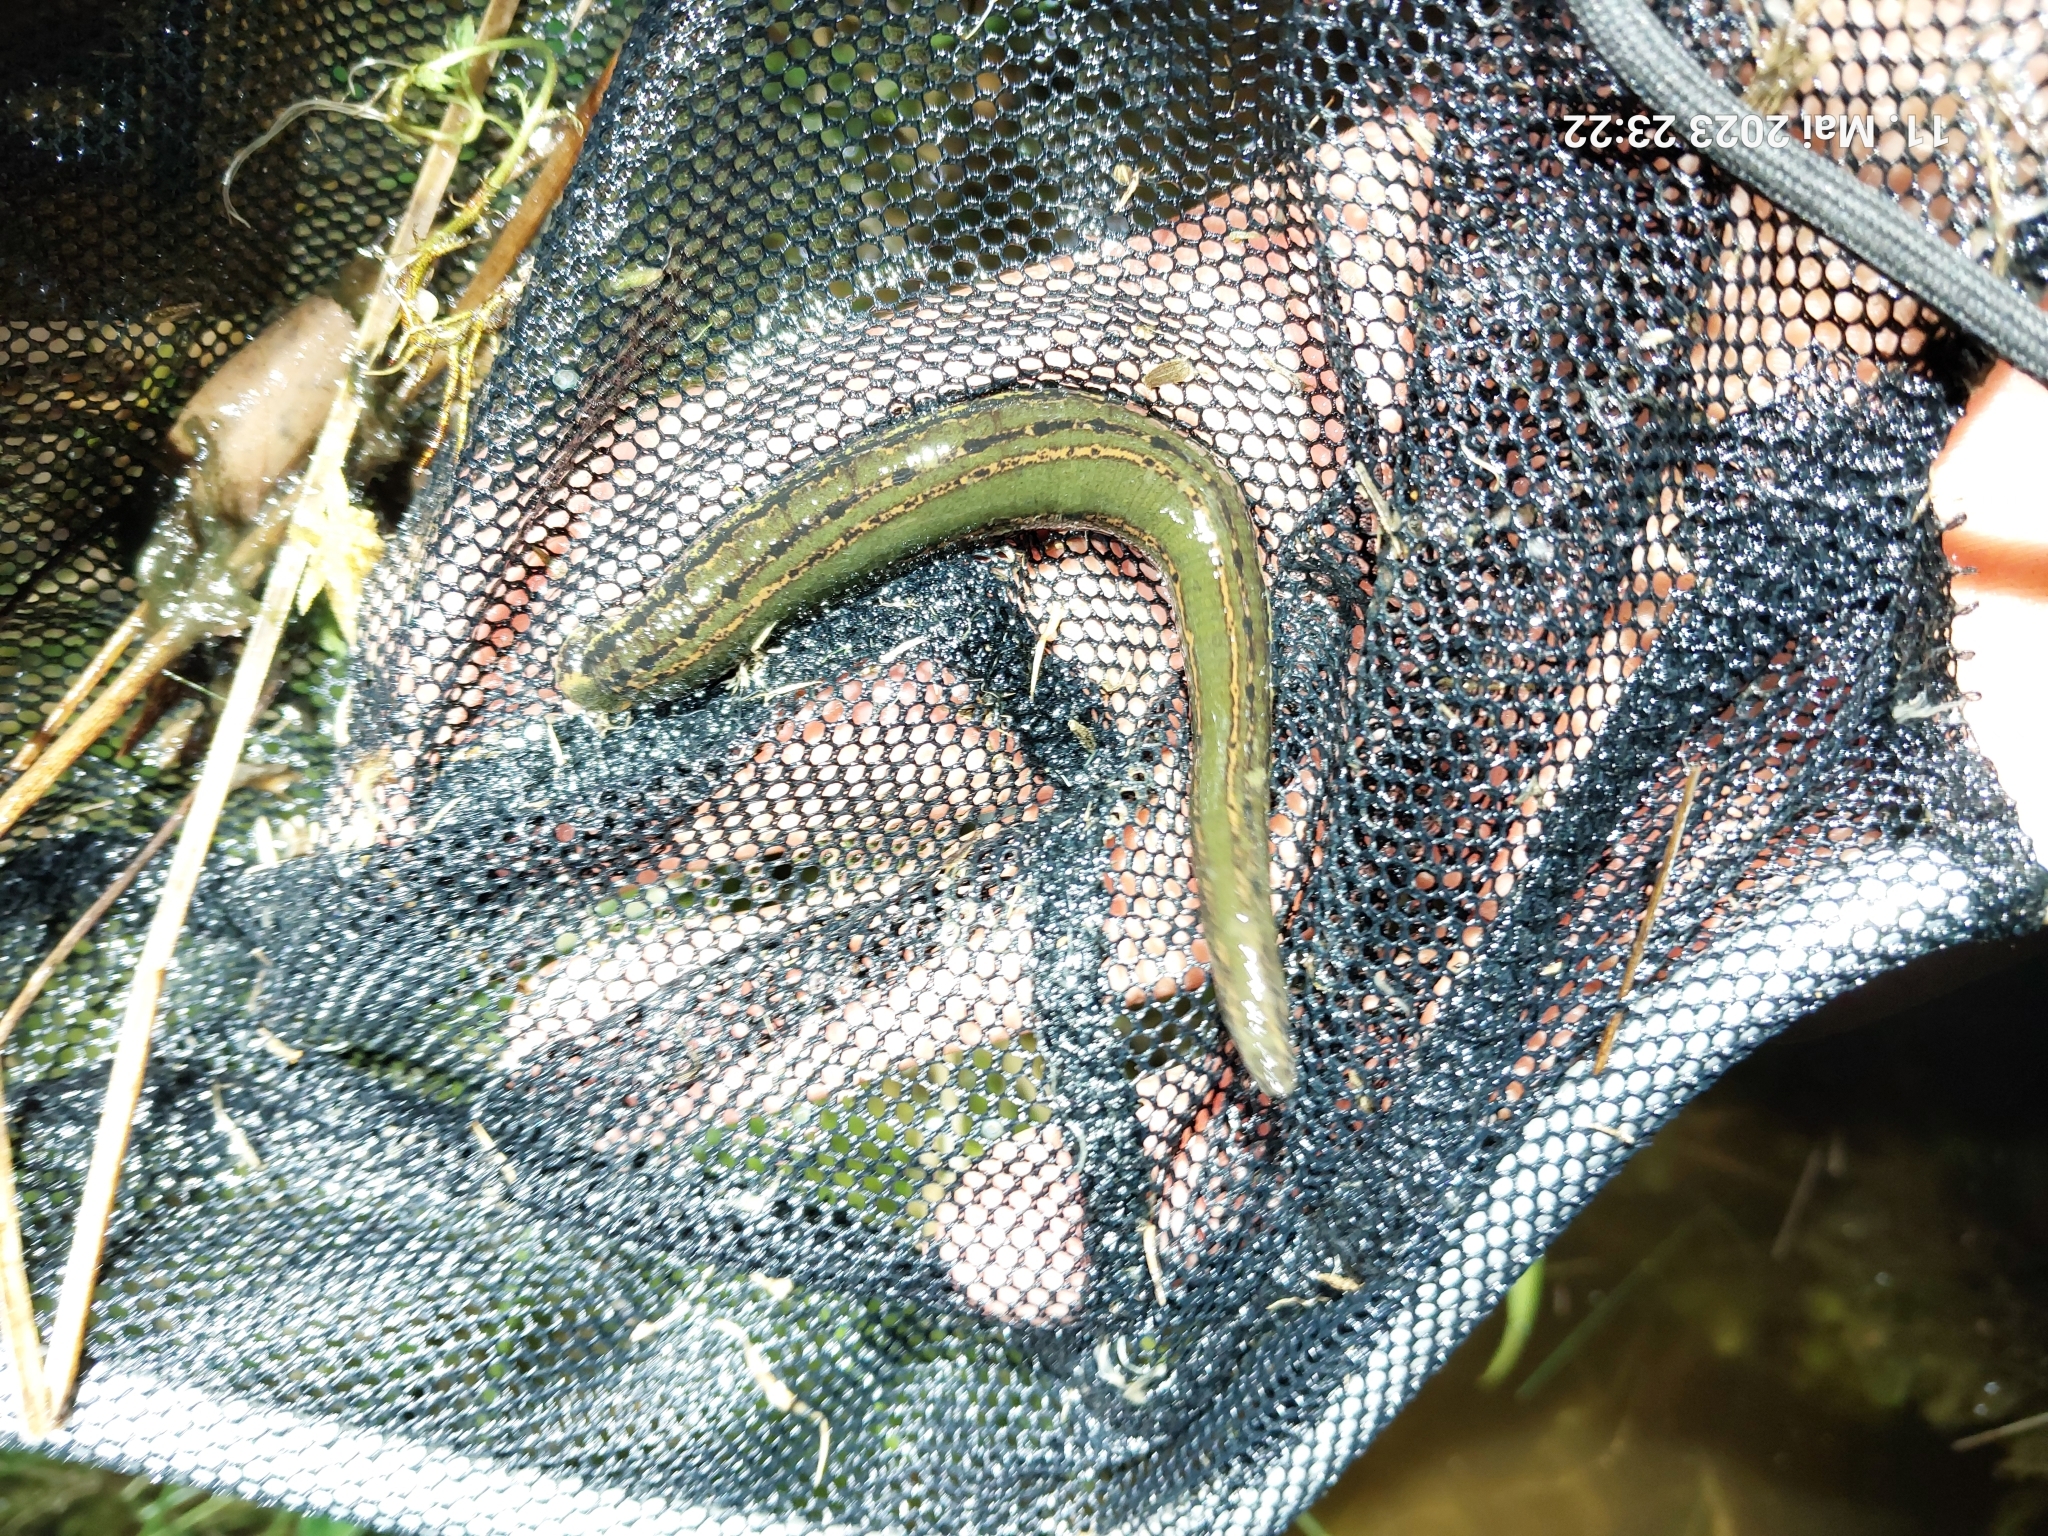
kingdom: Animalia
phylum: Annelida
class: Clitellata
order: Arhynchobdellida
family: Hirudinidae
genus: Hirudo
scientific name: Hirudo medicinalis
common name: Medicinal leech
